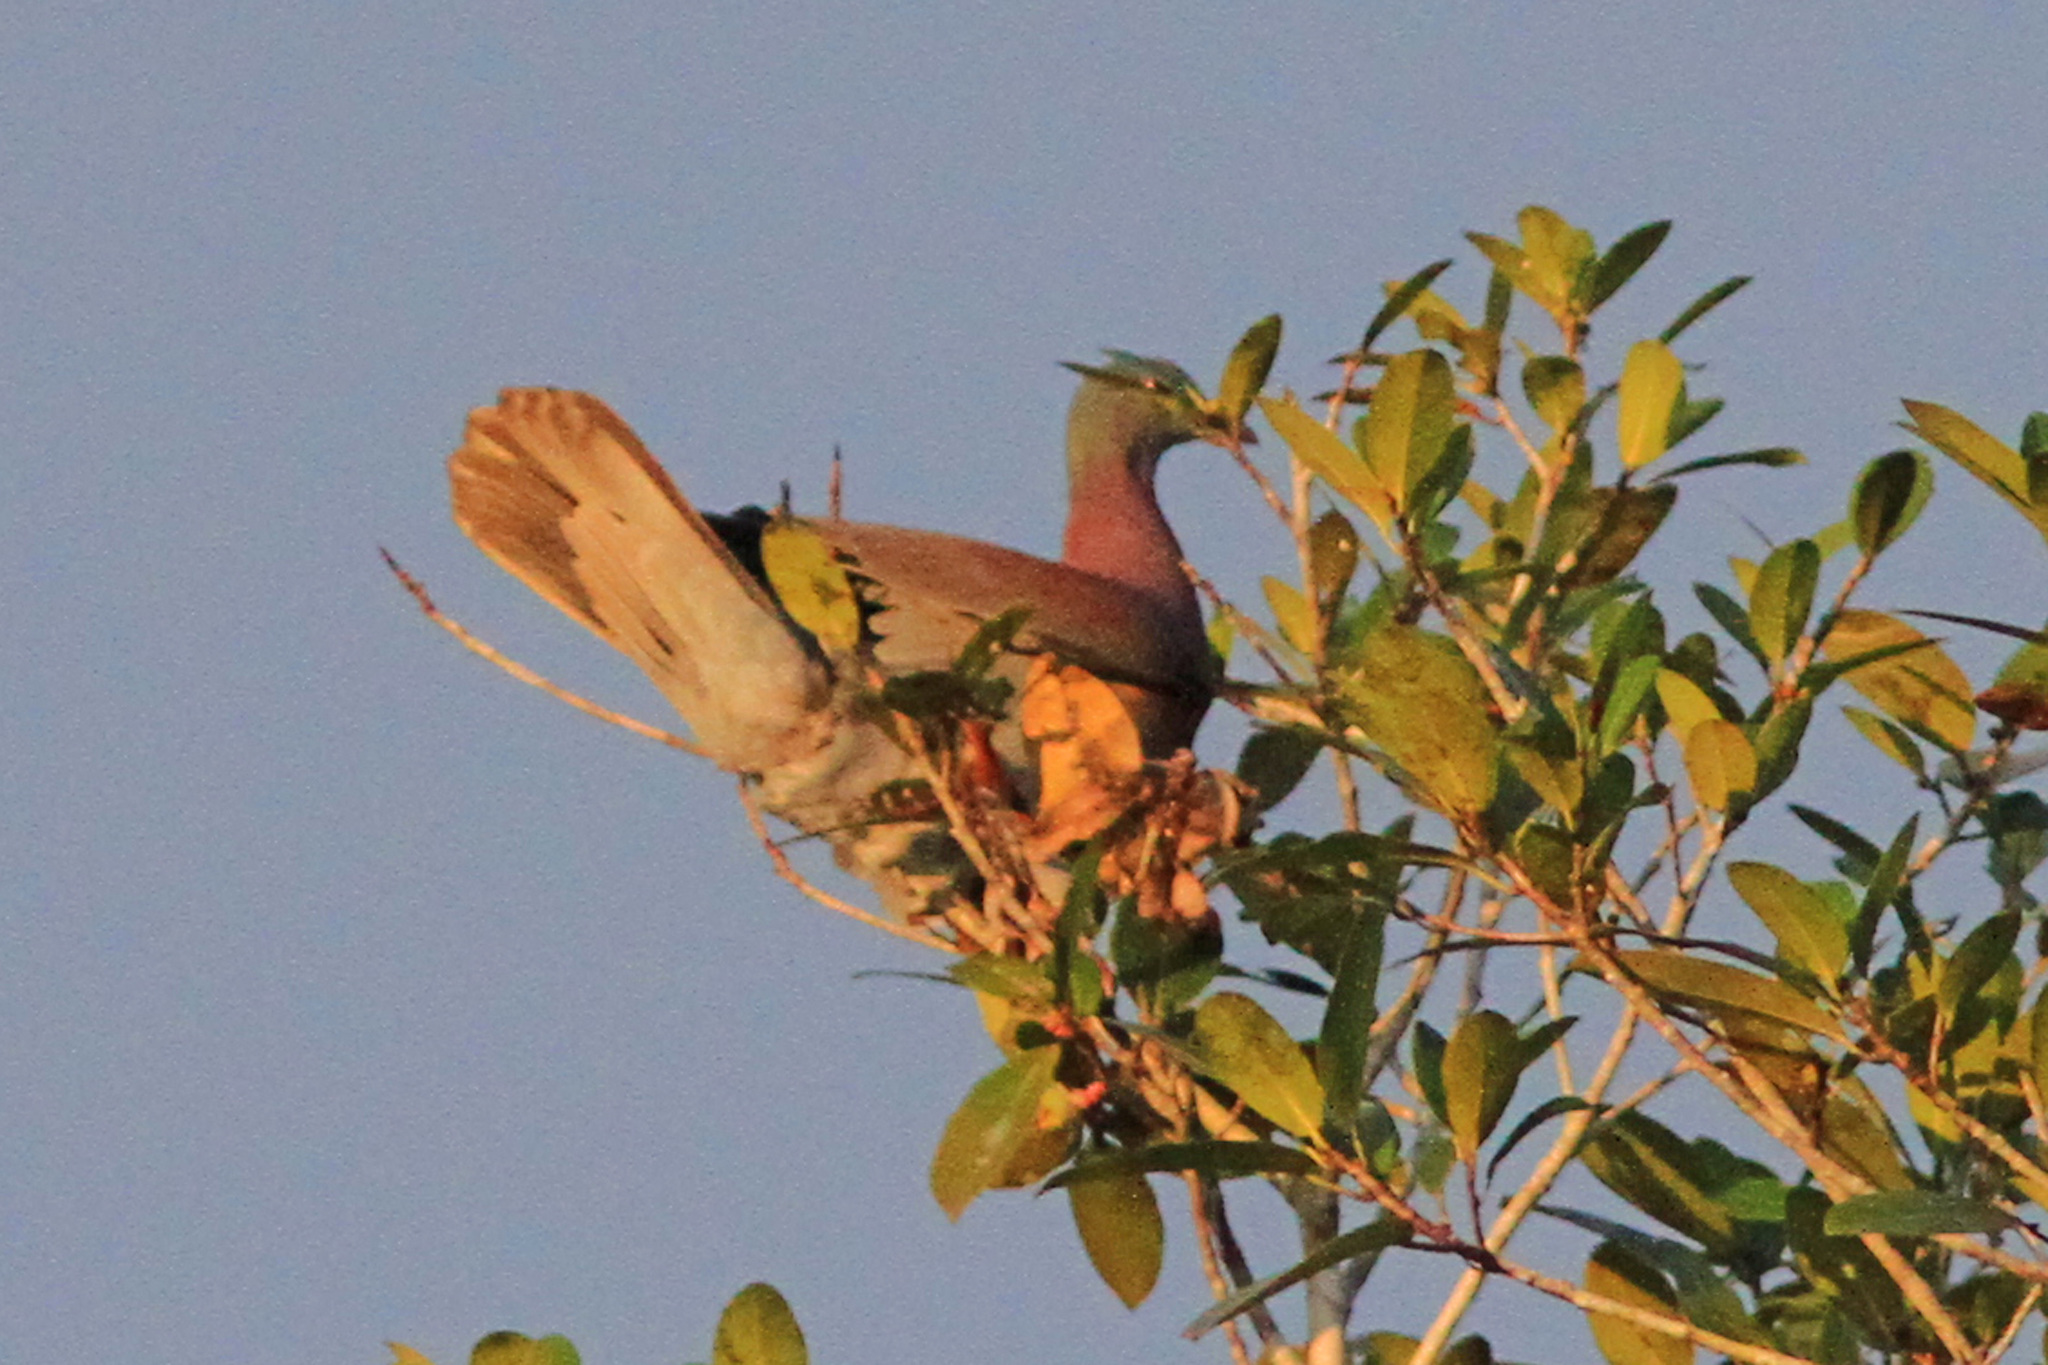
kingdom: Animalia
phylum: Chordata
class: Aves
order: Columbiformes
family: Columbidae
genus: Patagioenas
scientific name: Patagioenas cayennensis
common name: Pale-vented pigeon
